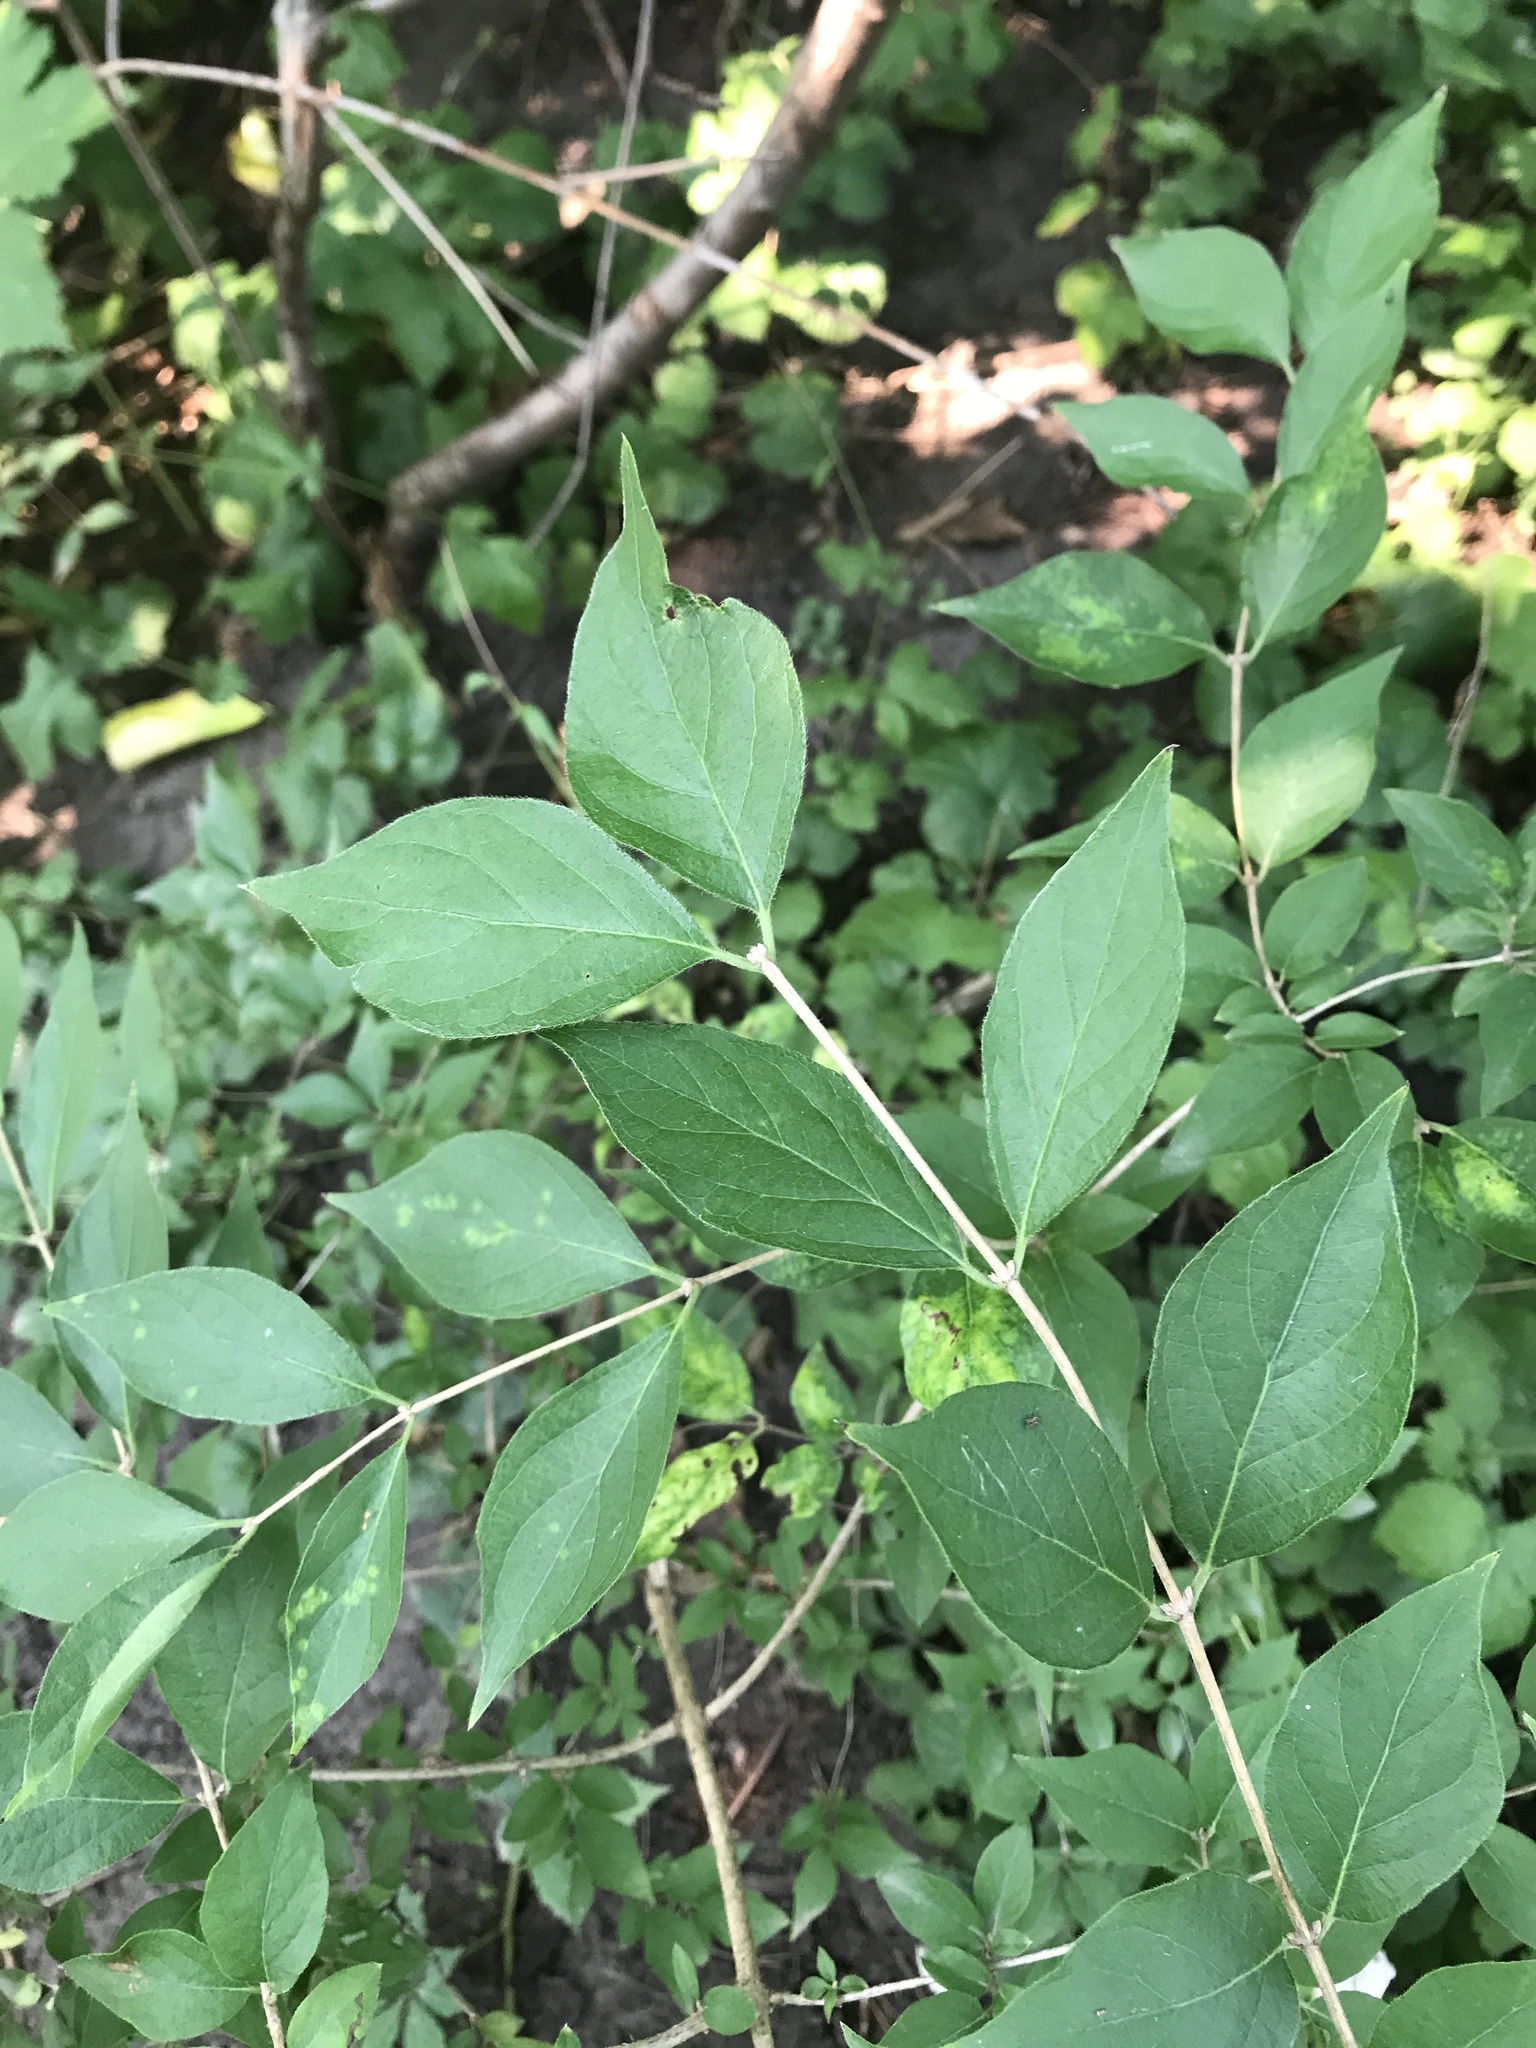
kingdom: Plantae
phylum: Tracheophyta
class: Magnoliopsida
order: Dipsacales
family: Caprifoliaceae
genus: Lonicera
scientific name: Lonicera maackii
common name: Amur honeysuckle
